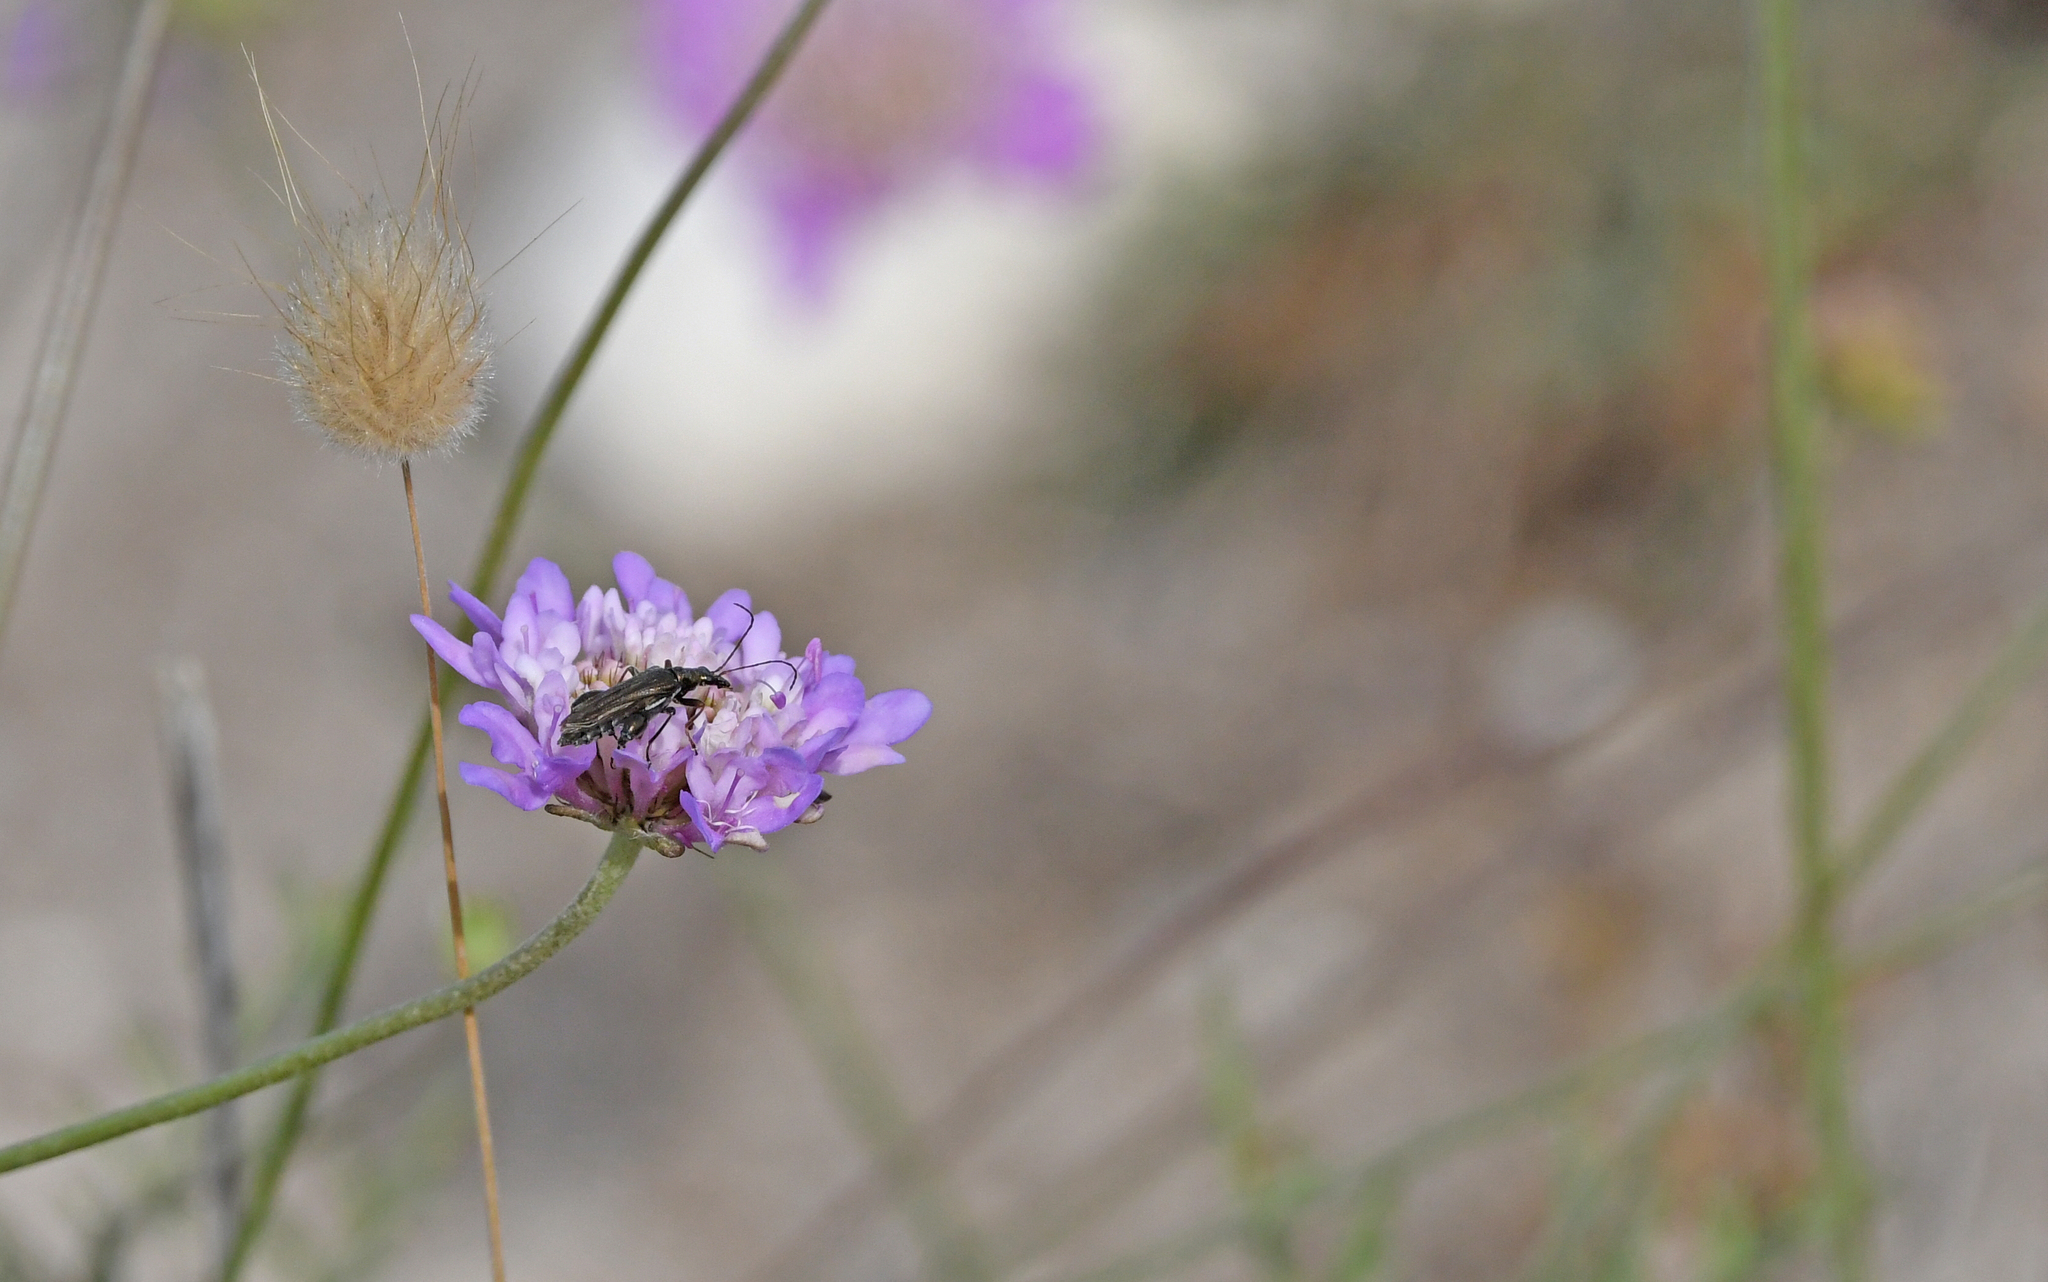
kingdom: Animalia
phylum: Arthropoda
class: Insecta
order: Coleoptera
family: Oedemeridae
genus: Oedemera
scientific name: Oedemera flavipes
